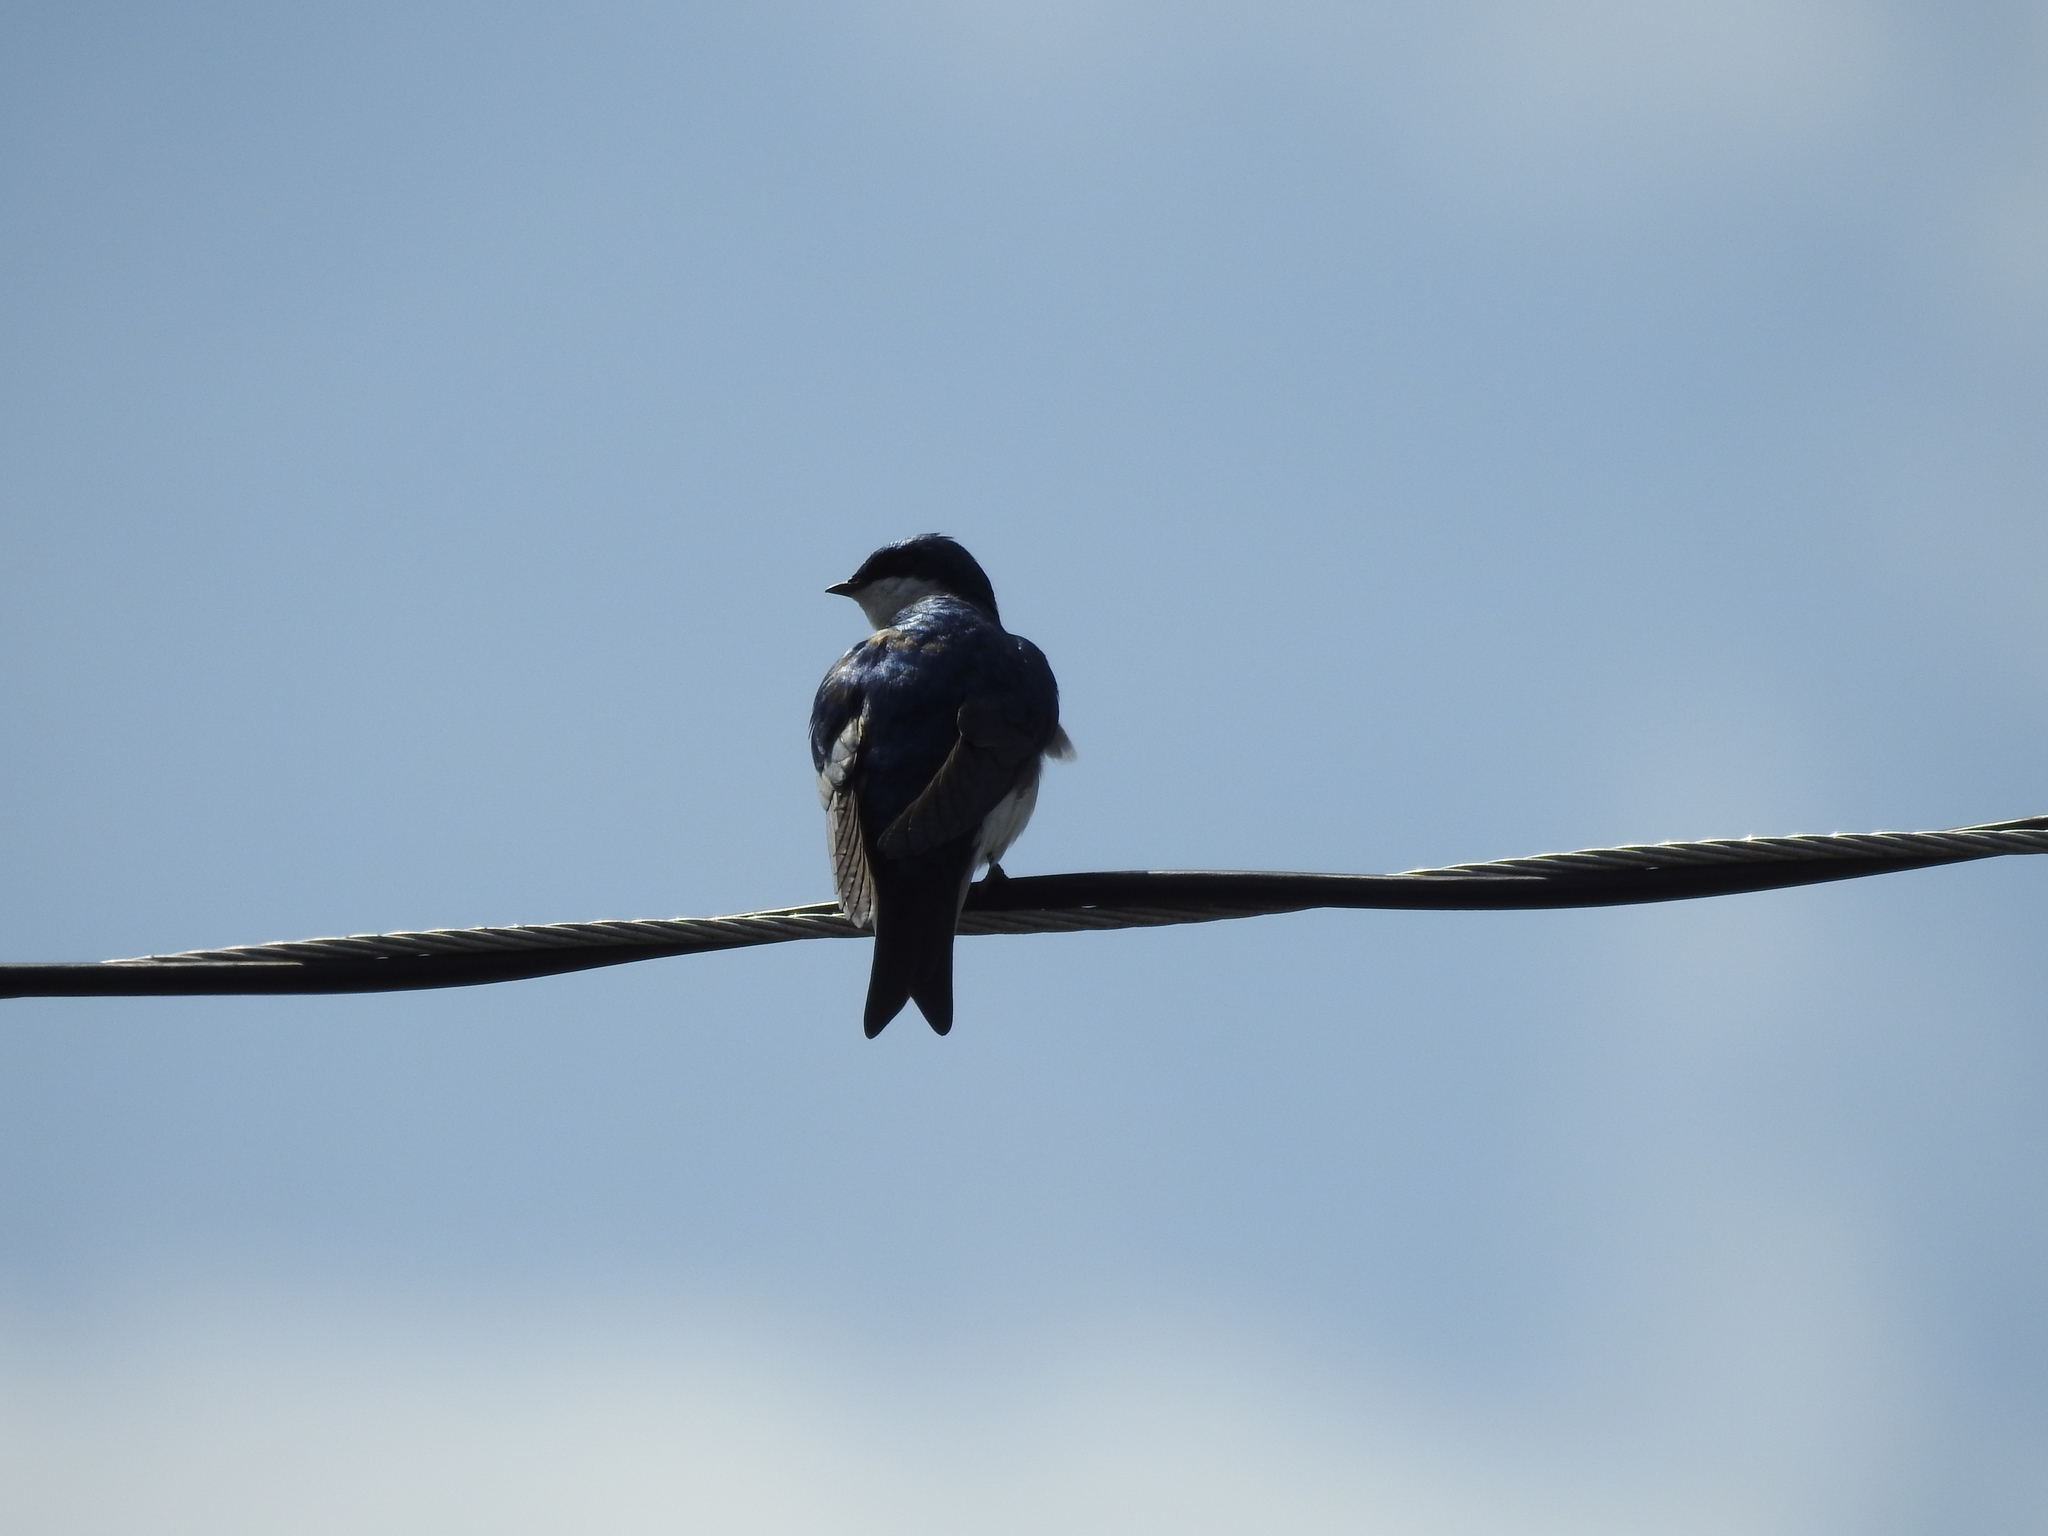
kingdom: Animalia
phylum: Chordata
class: Aves
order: Passeriformes
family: Hirundinidae
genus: Tachycineta
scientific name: Tachycineta bicolor
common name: Tree swallow
